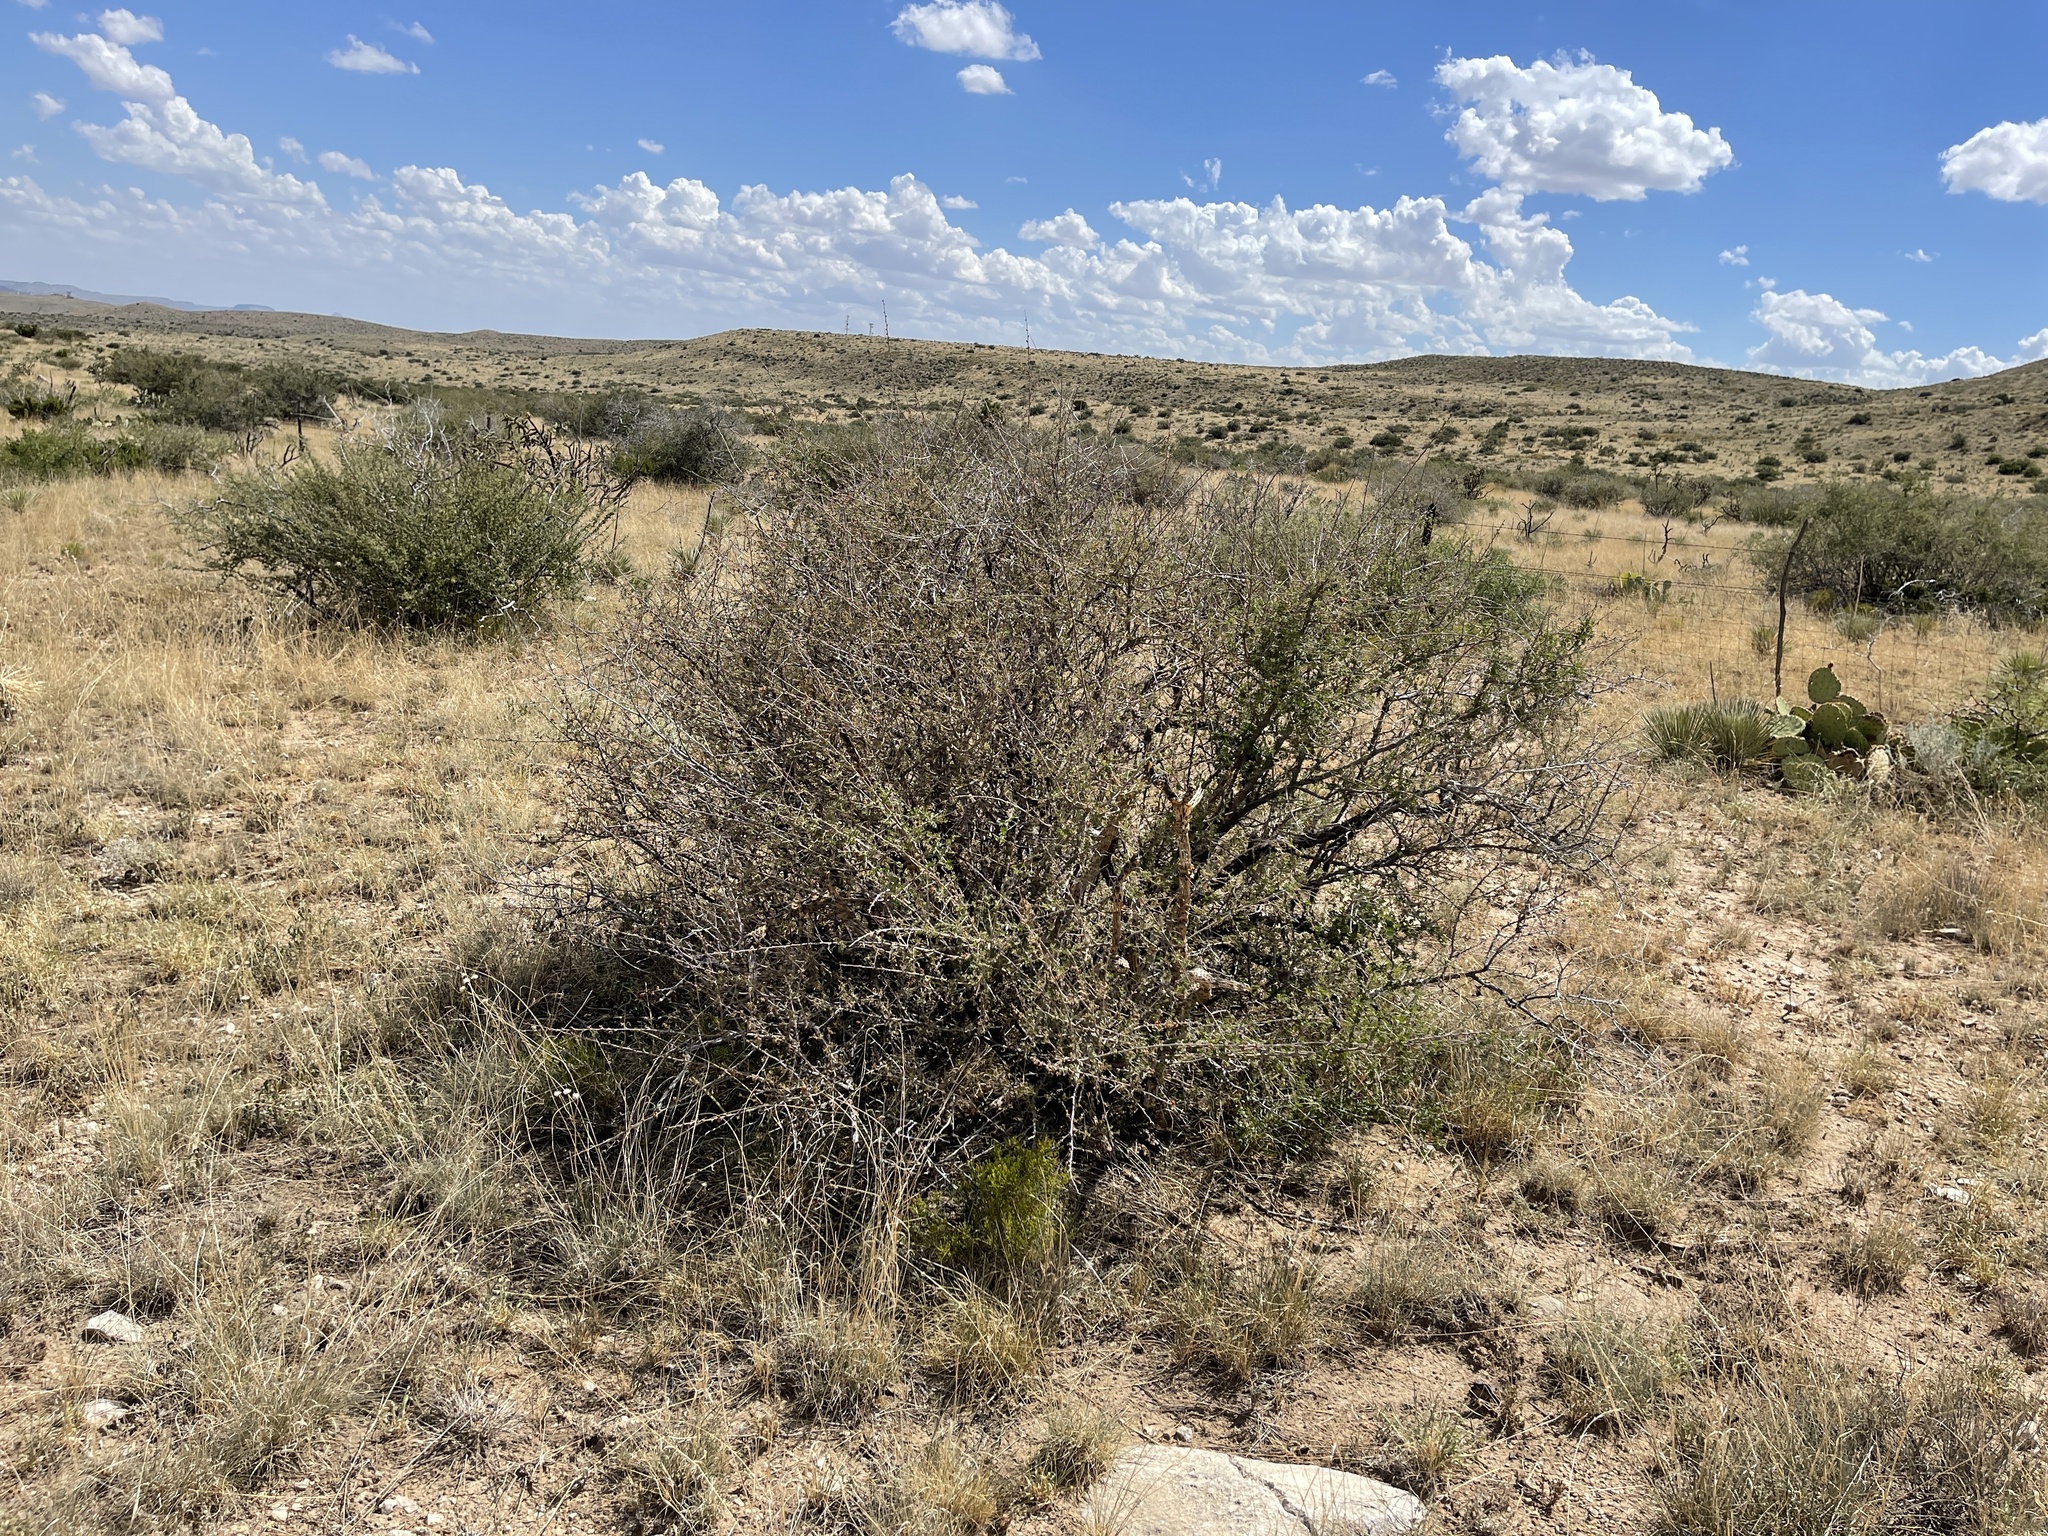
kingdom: Plantae
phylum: Tracheophyta
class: Magnoliopsida
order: Sapindales
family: Anacardiaceae
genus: Rhus
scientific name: Rhus microphylla
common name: Desert sumac
